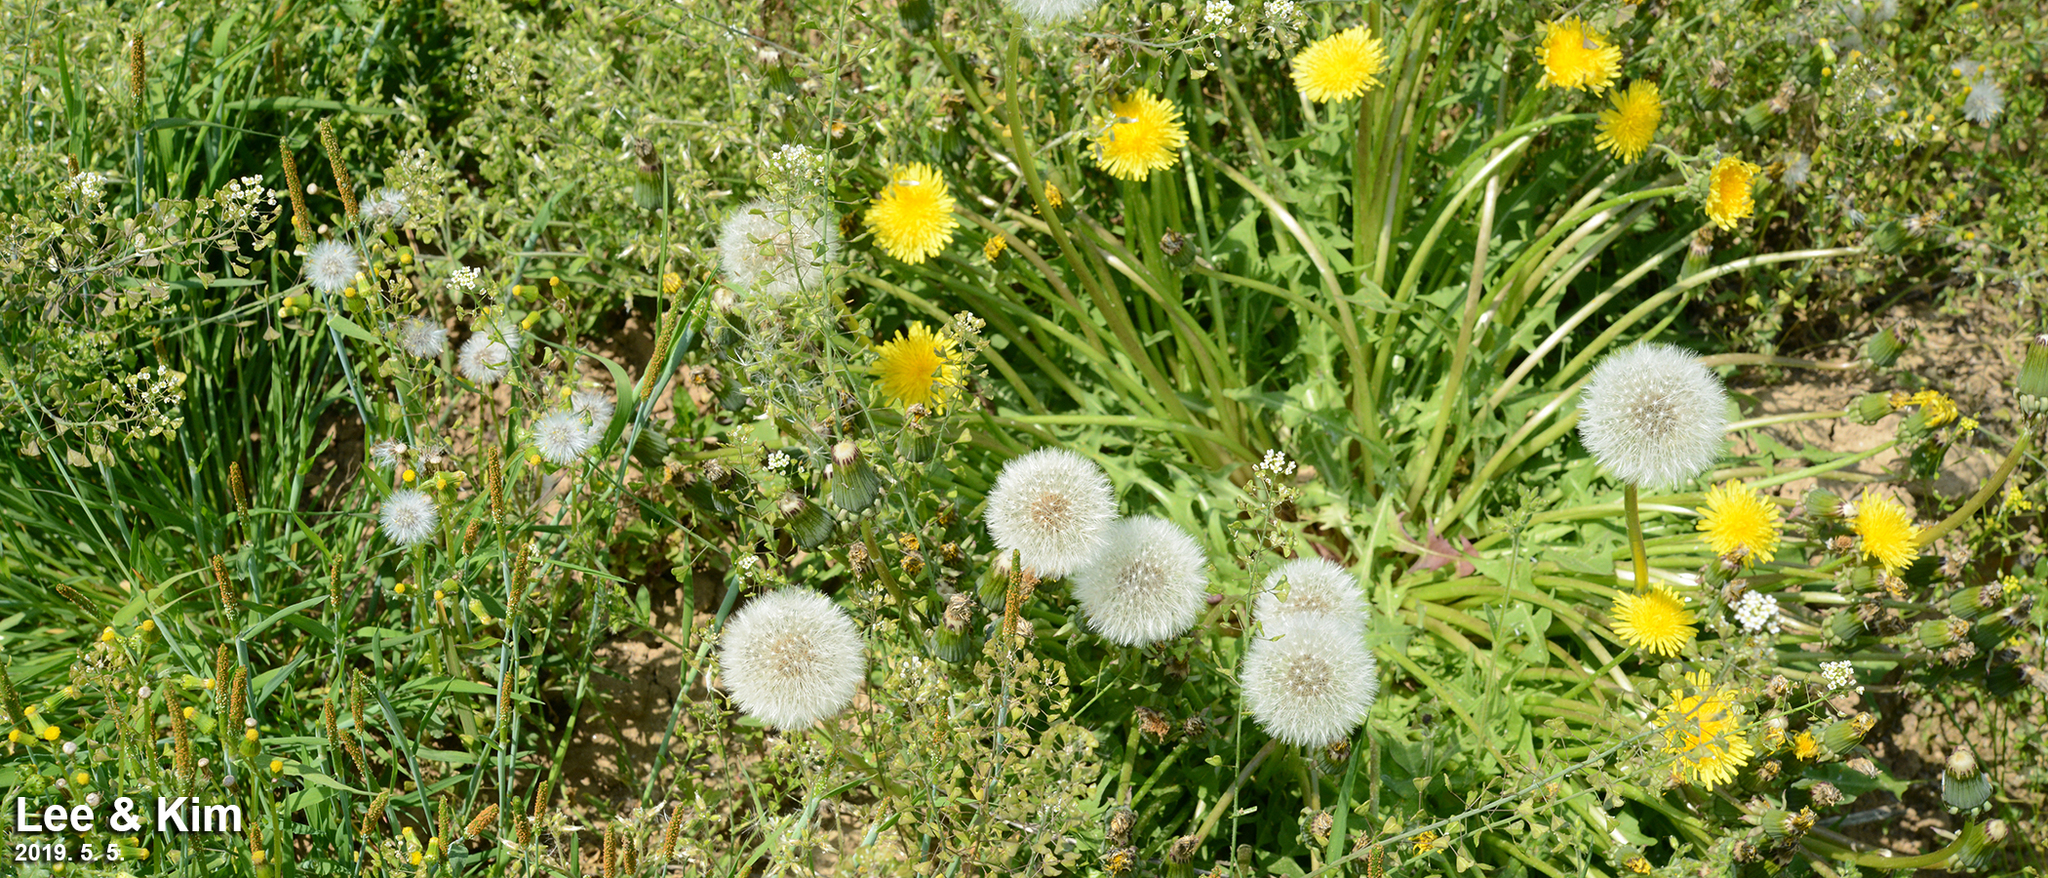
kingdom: Plantae
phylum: Tracheophyta
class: Magnoliopsida
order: Asterales
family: Asteraceae
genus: Taraxacum
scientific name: Taraxacum officinale
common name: Common dandelion
